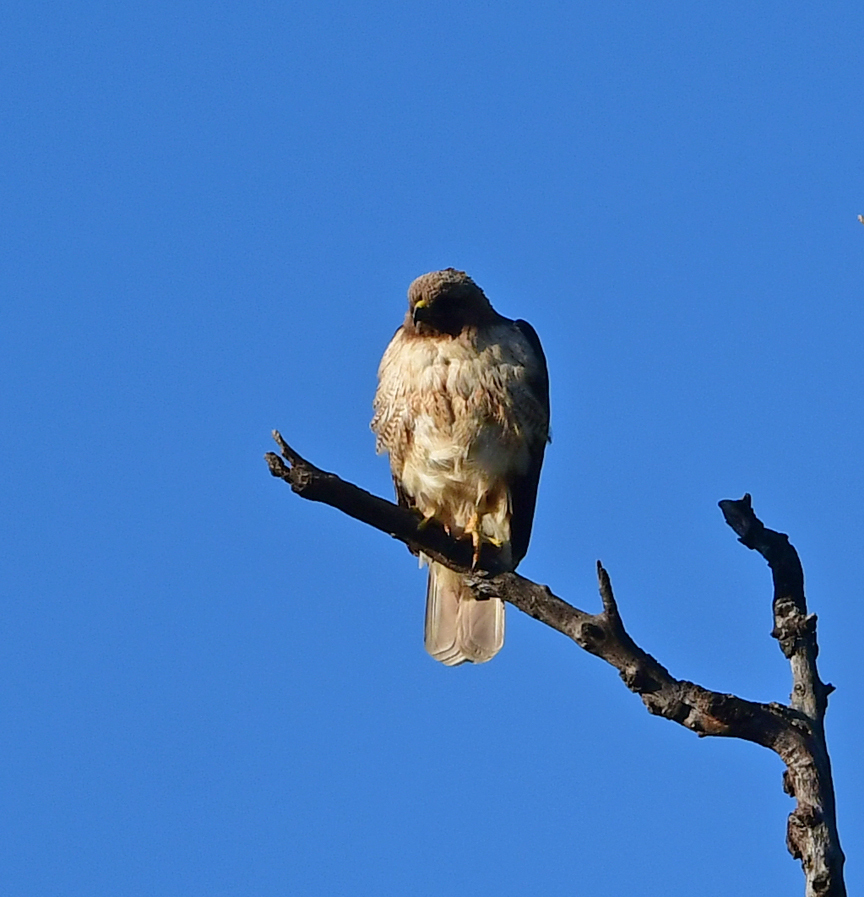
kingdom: Animalia
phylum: Chordata
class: Aves
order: Accipitriformes
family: Accipitridae
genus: Buteo
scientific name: Buteo jamaicensis
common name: Red-tailed hawk
